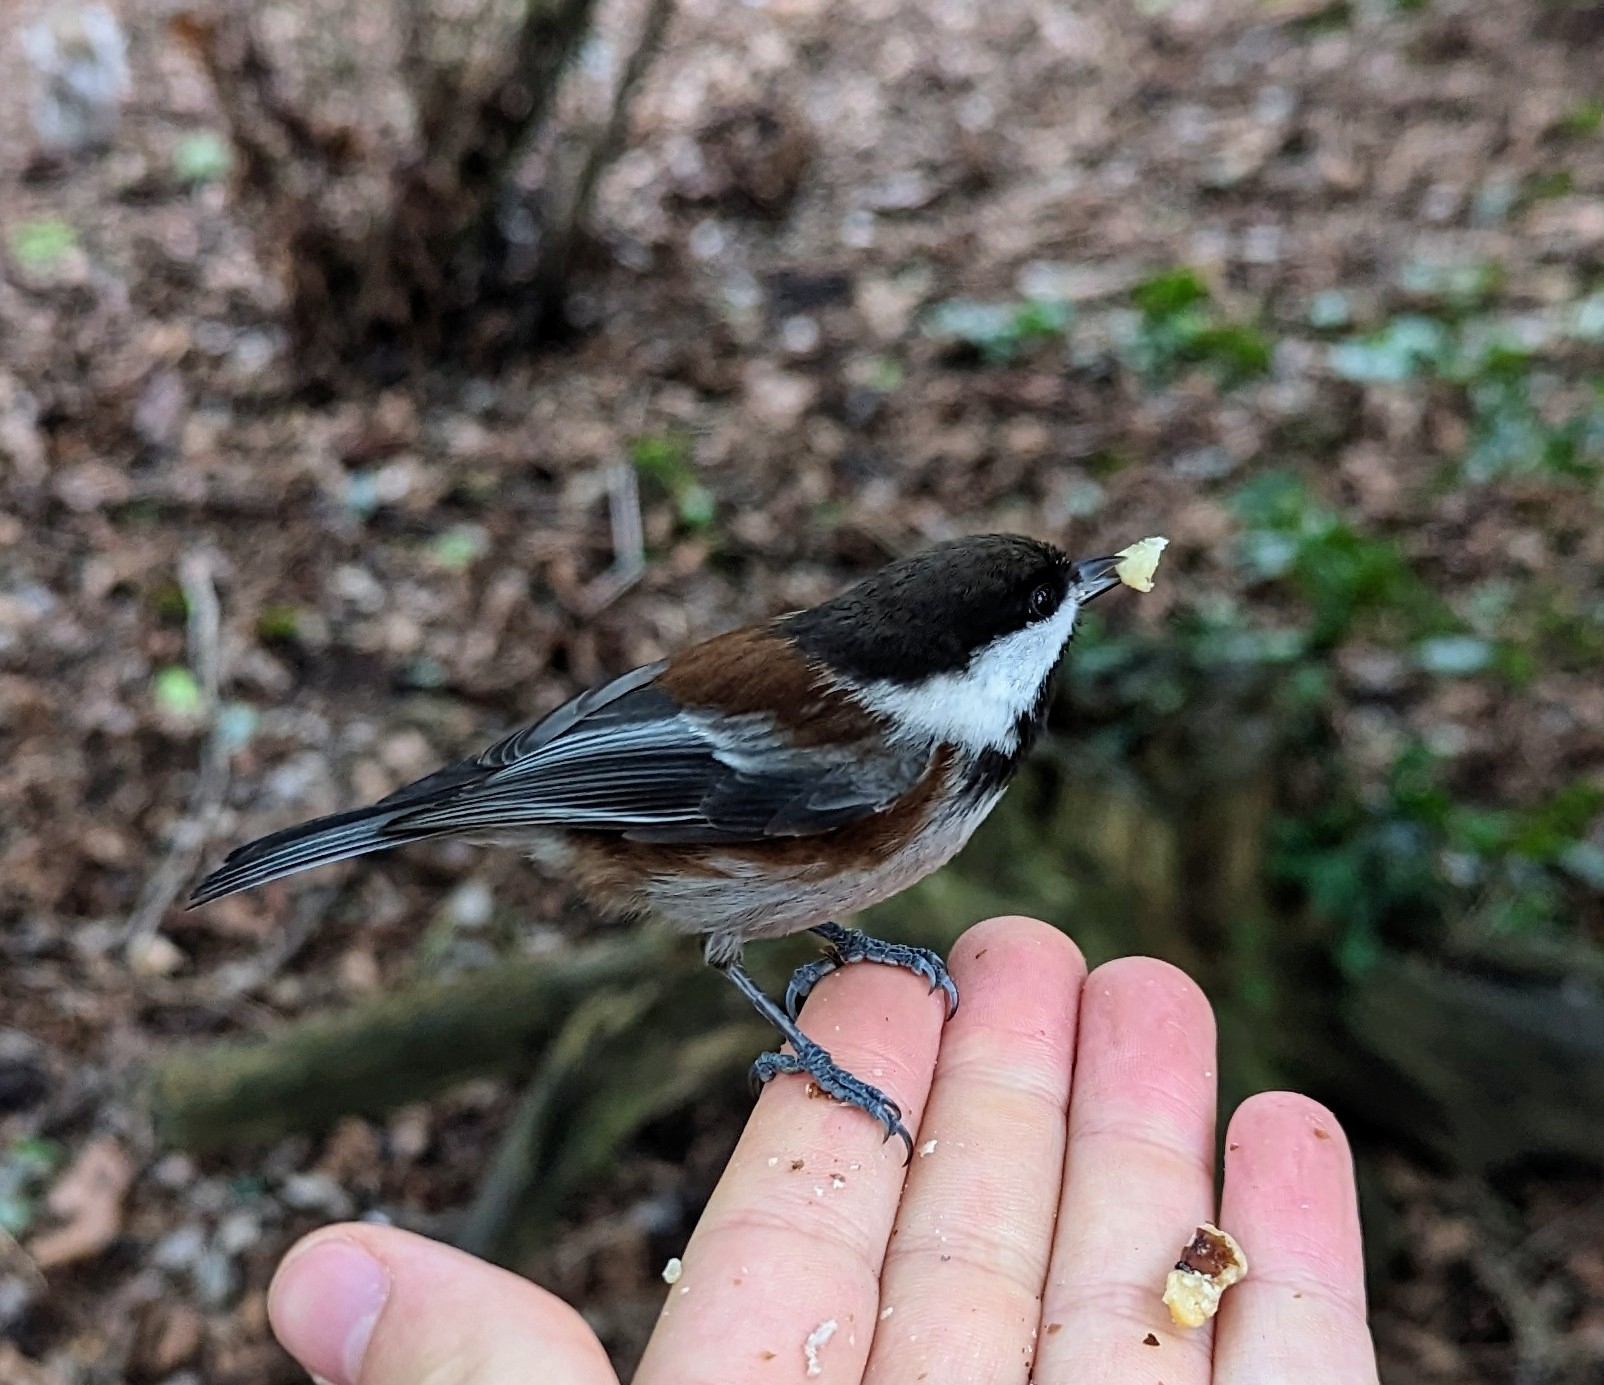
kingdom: Animalia
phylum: Chordata
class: Aves
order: Passeriformes
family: Paridae
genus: Poecile
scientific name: Poecile rufescens
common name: Chestnut-backed chickadee
